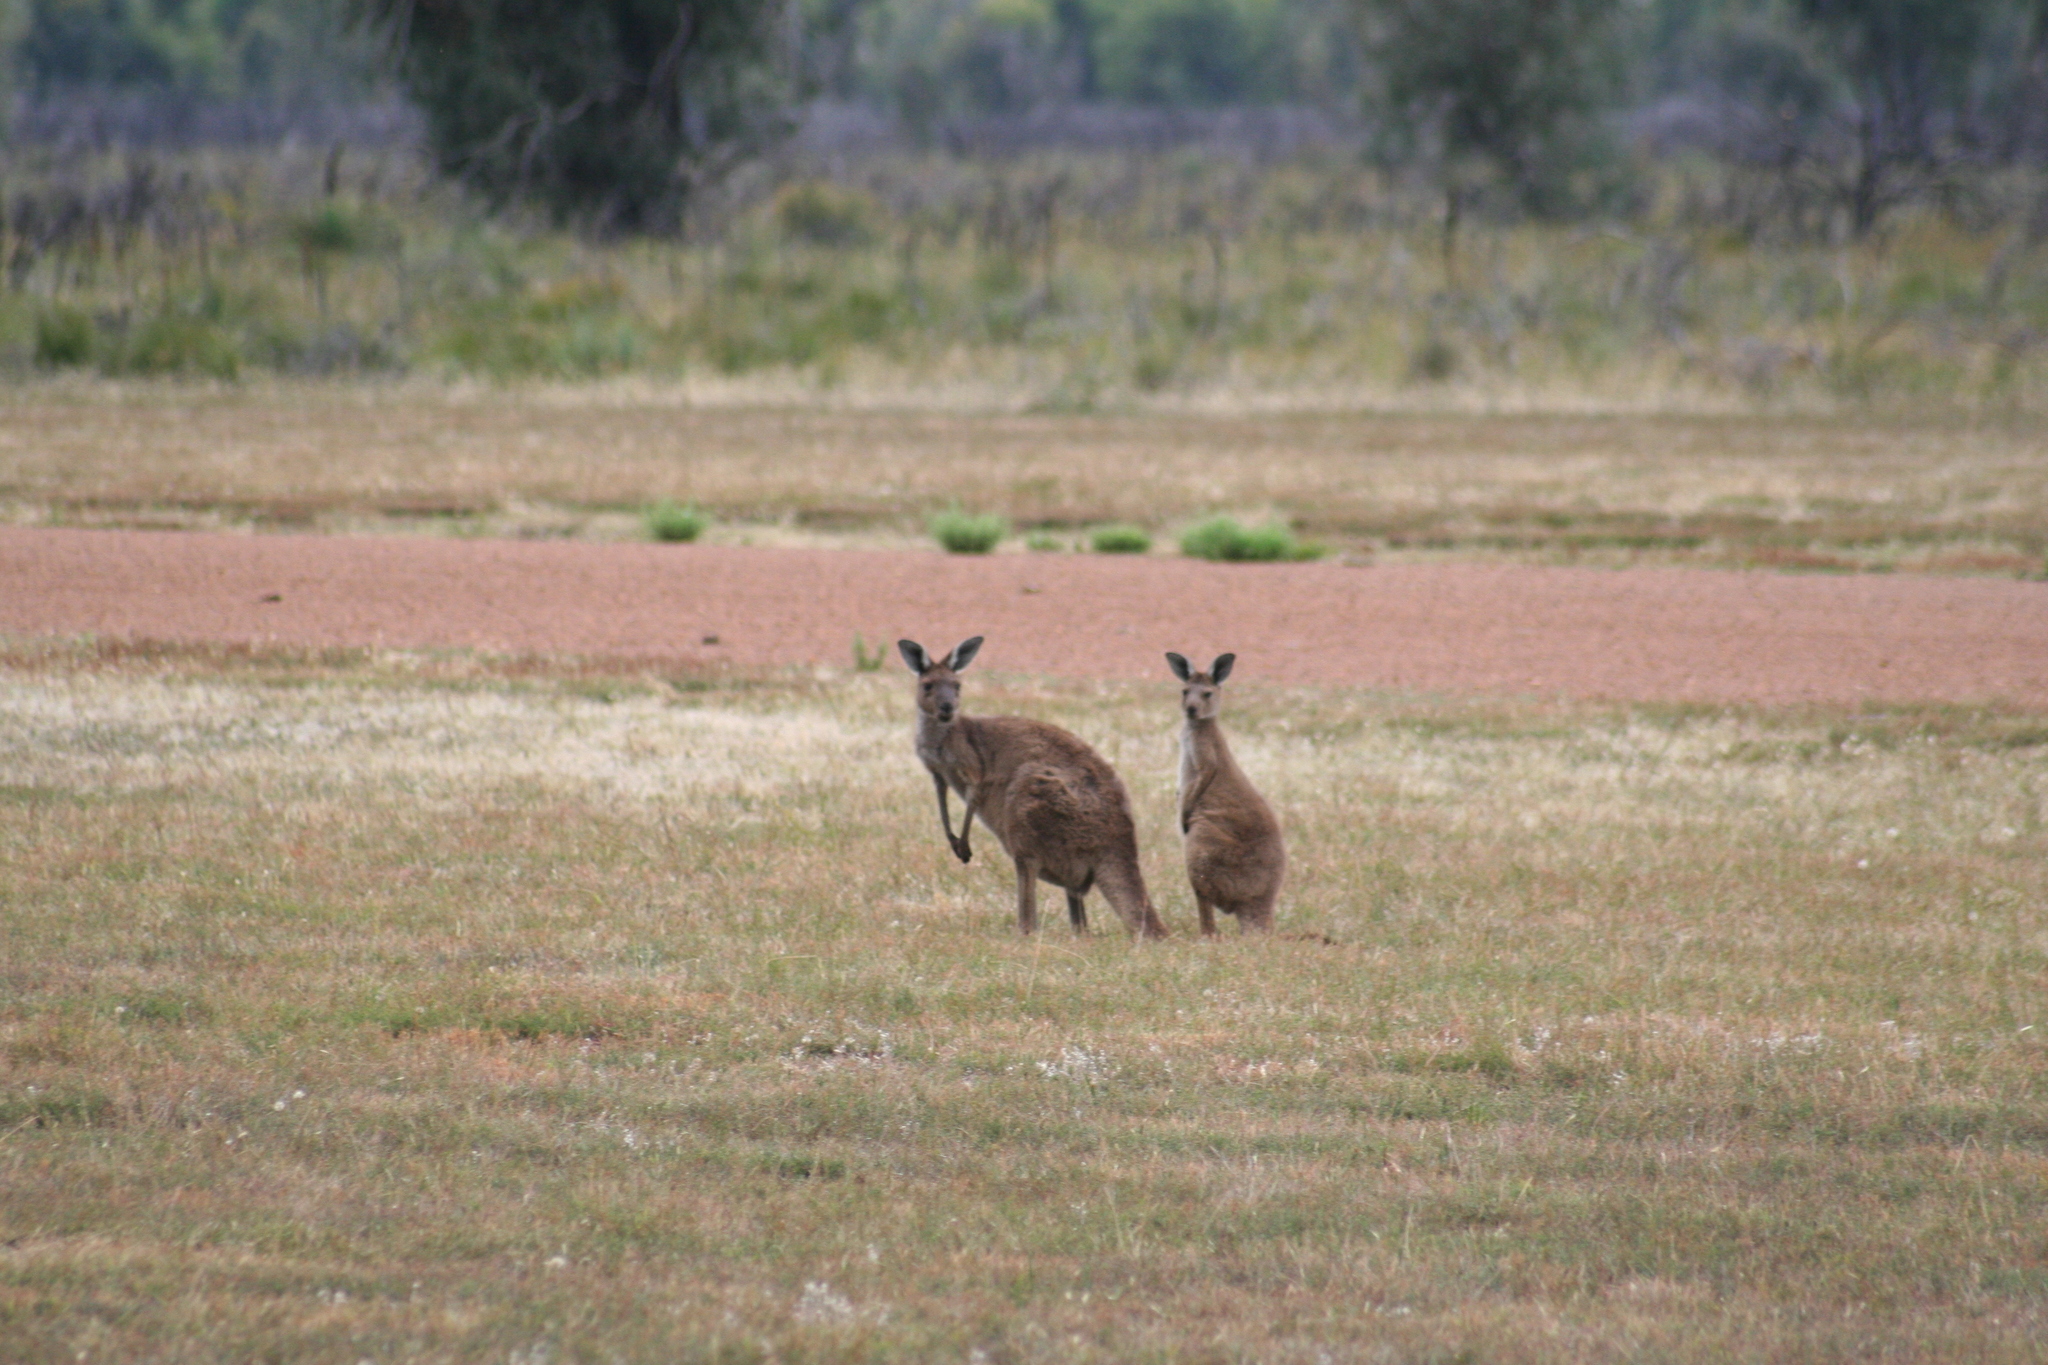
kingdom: Animalia
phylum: Chordata
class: Mammalia
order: Diprotodontia
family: Macropodidae
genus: Macropus
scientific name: Macropus fuliginosus
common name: Western grey kangaroo
